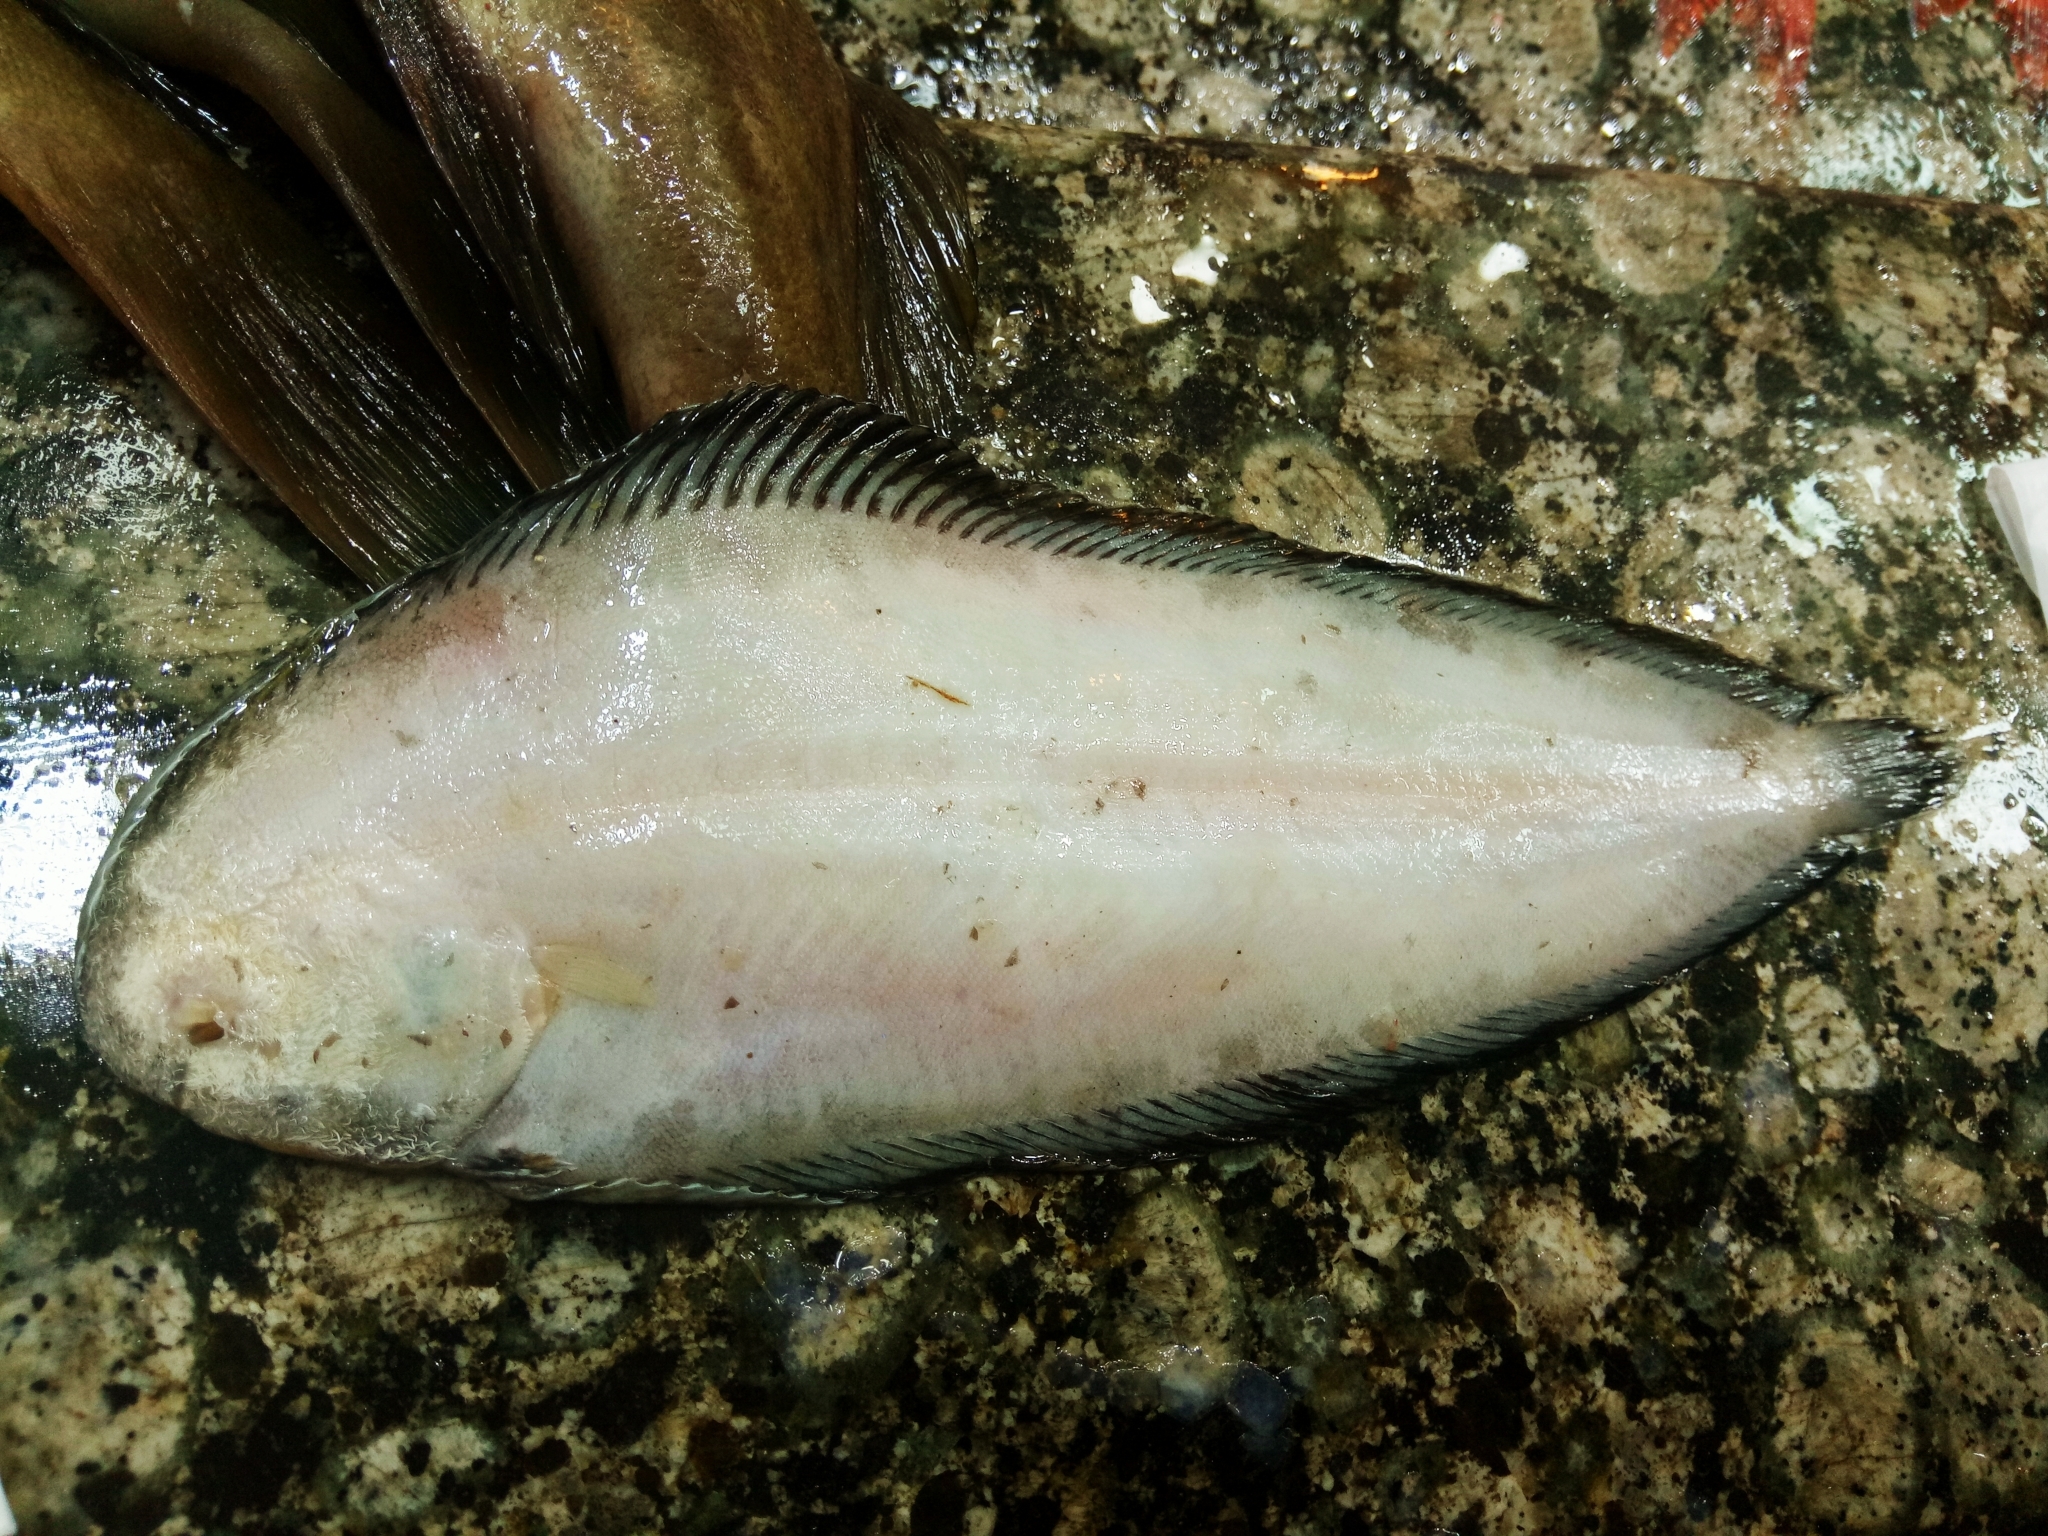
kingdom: Animalia
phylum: Chordata
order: Pleuronectiformes
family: Soleidae
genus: Synapturichthys
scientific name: Synapturichthys kleinii
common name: Klein's sole
